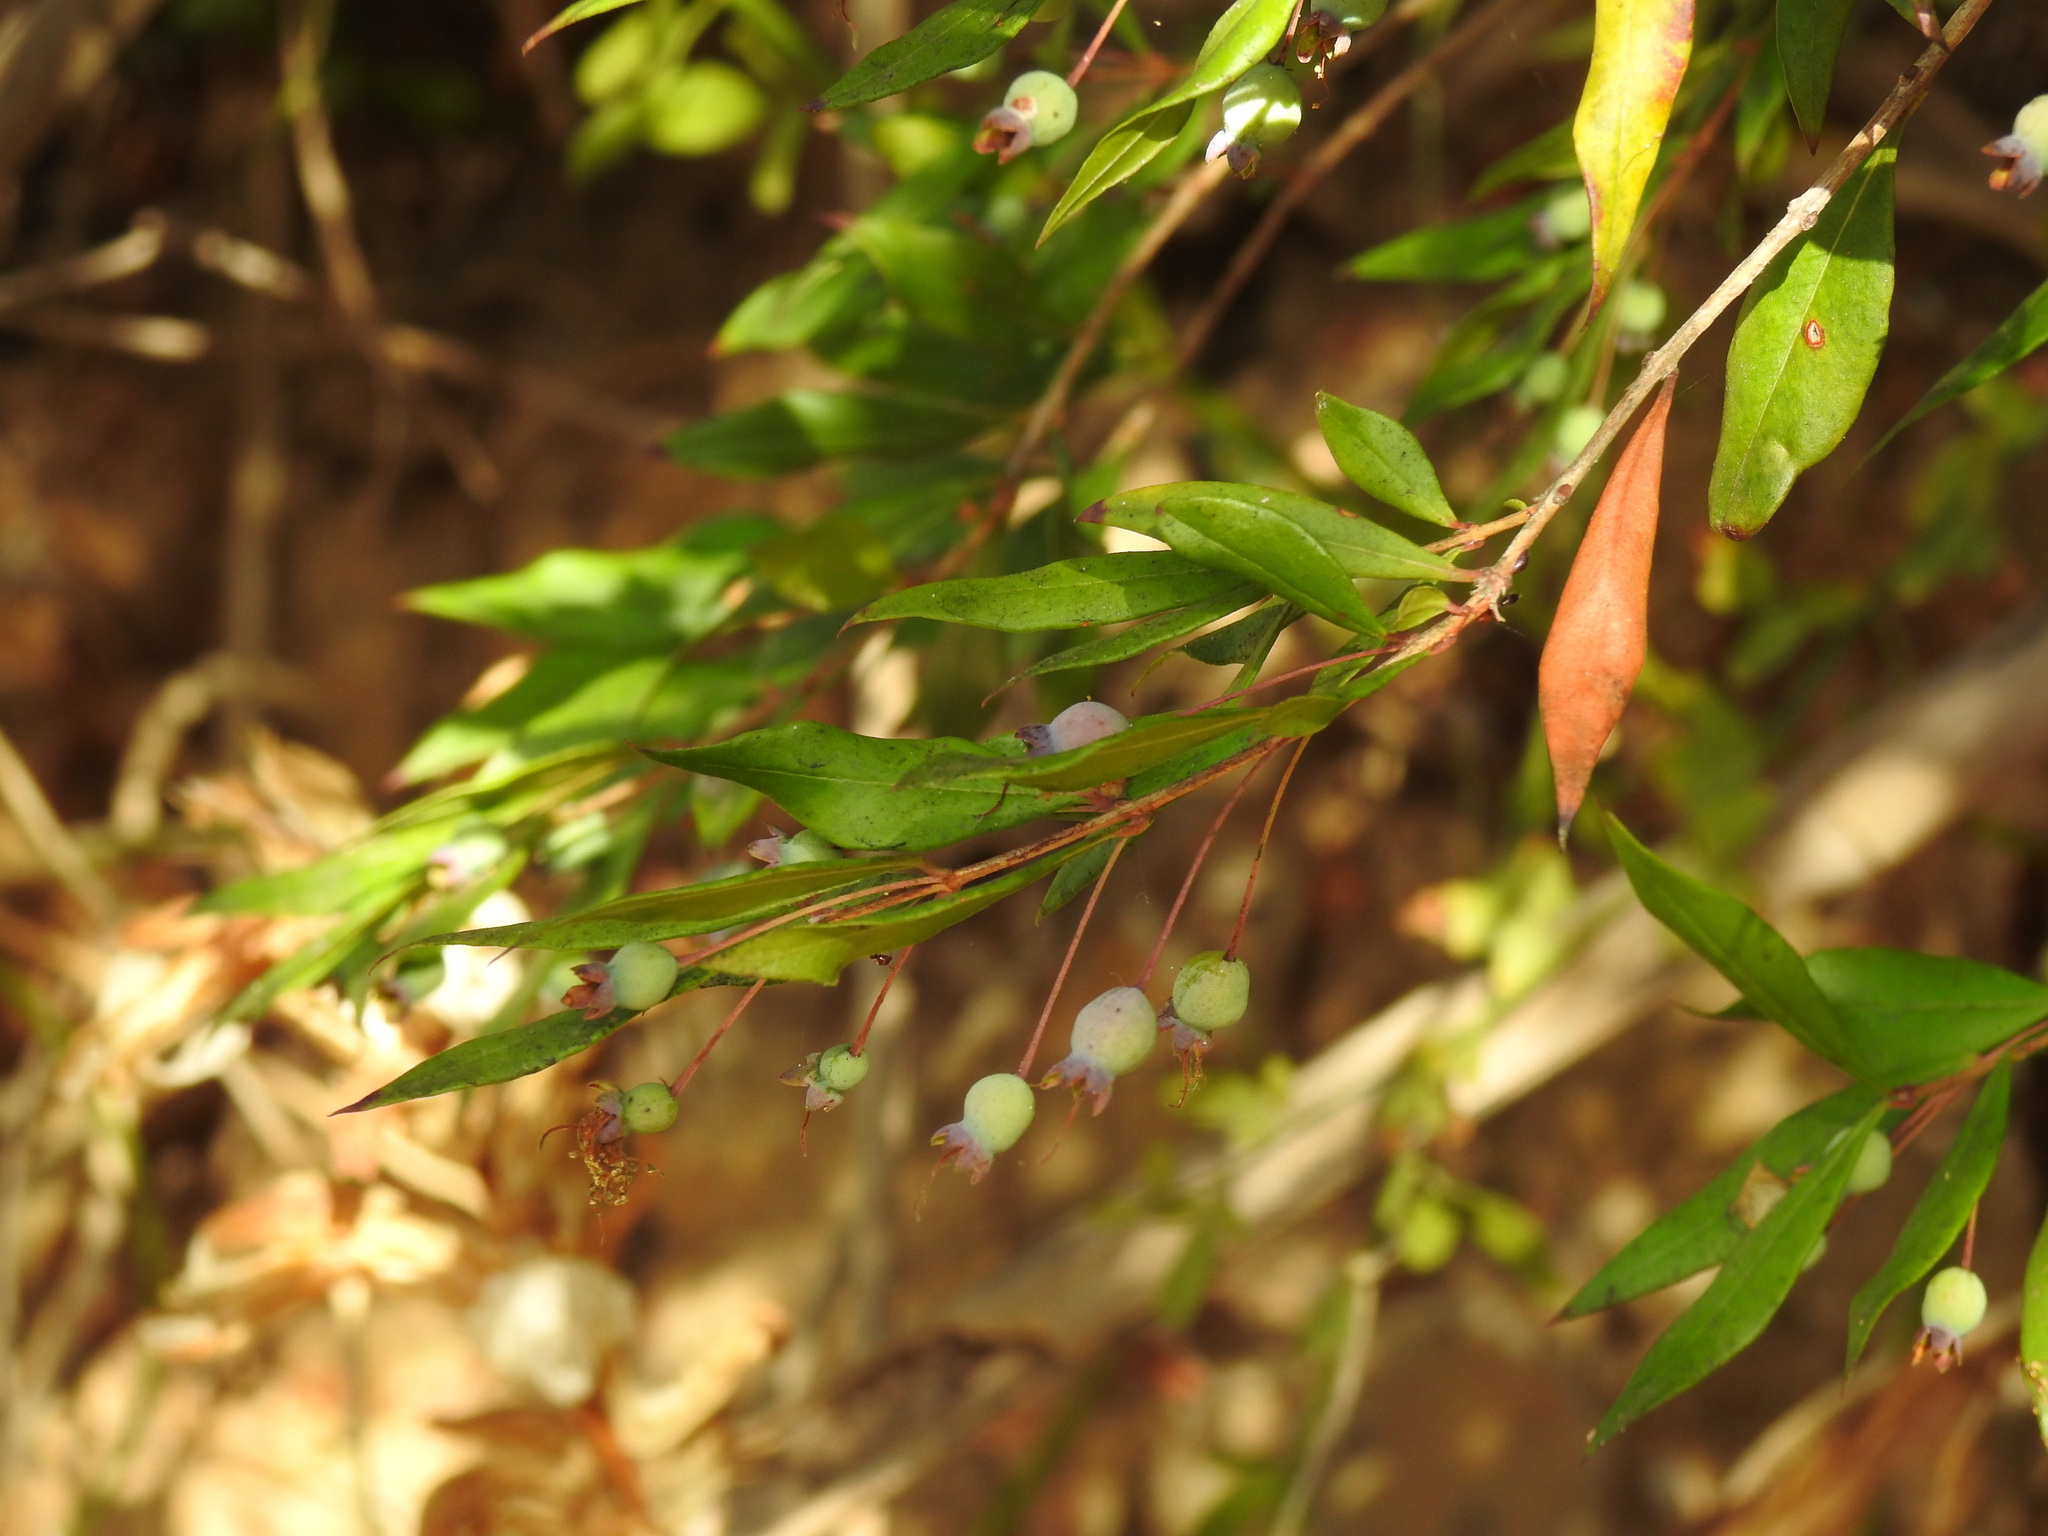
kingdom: Plantae
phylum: Tracheophyta
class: Magnoliopsida
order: Myrtales
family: Myrtaceae
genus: Myrtus
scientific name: Myrtus communis
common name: Myrtle
